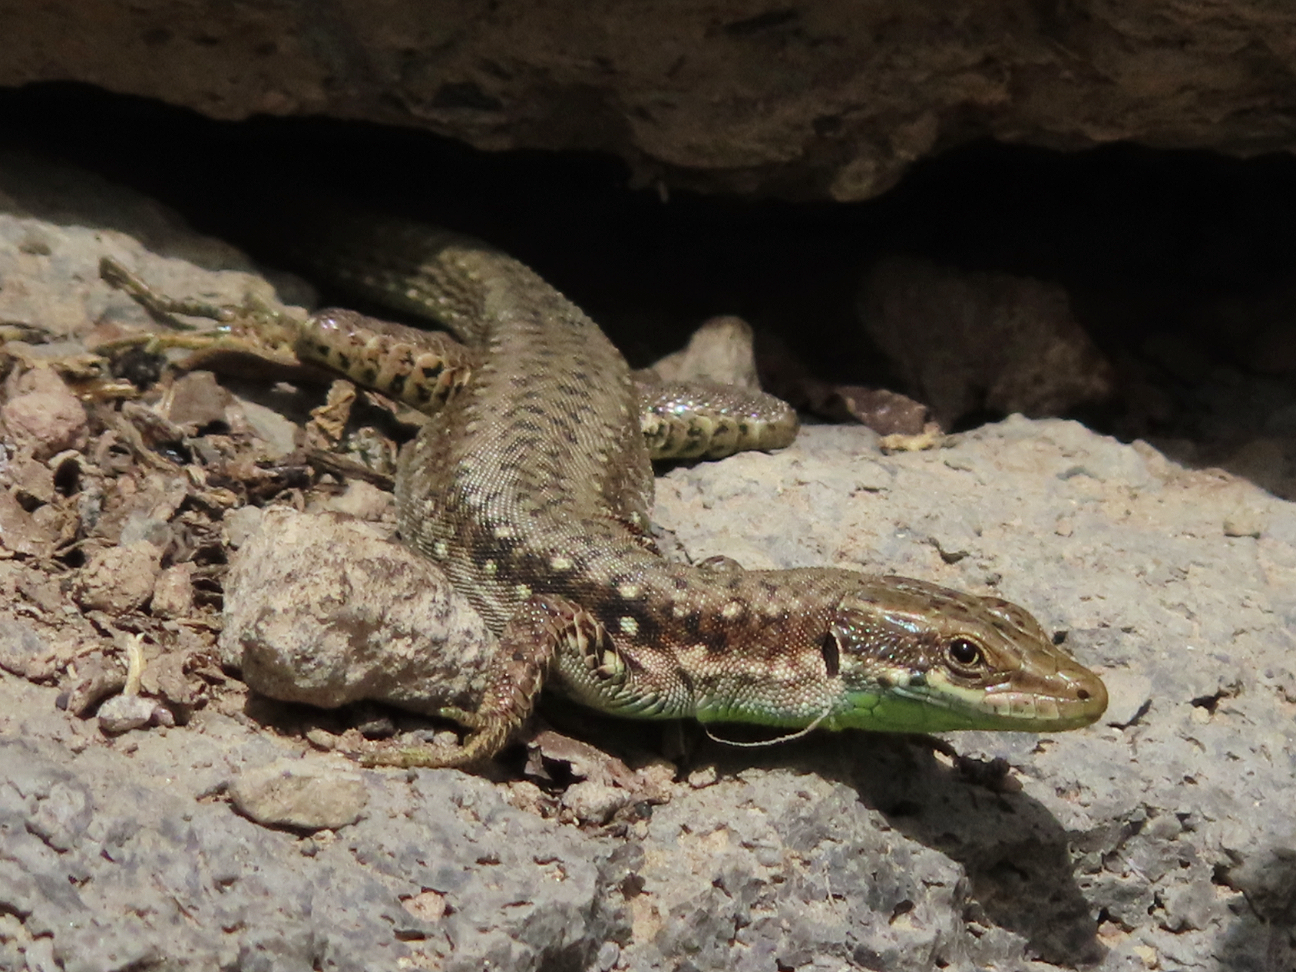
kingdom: Animalia
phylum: Chordata
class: Squamata
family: Lacertidae
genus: Darevskia
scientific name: Darevskia raddei
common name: Radde's lizard
